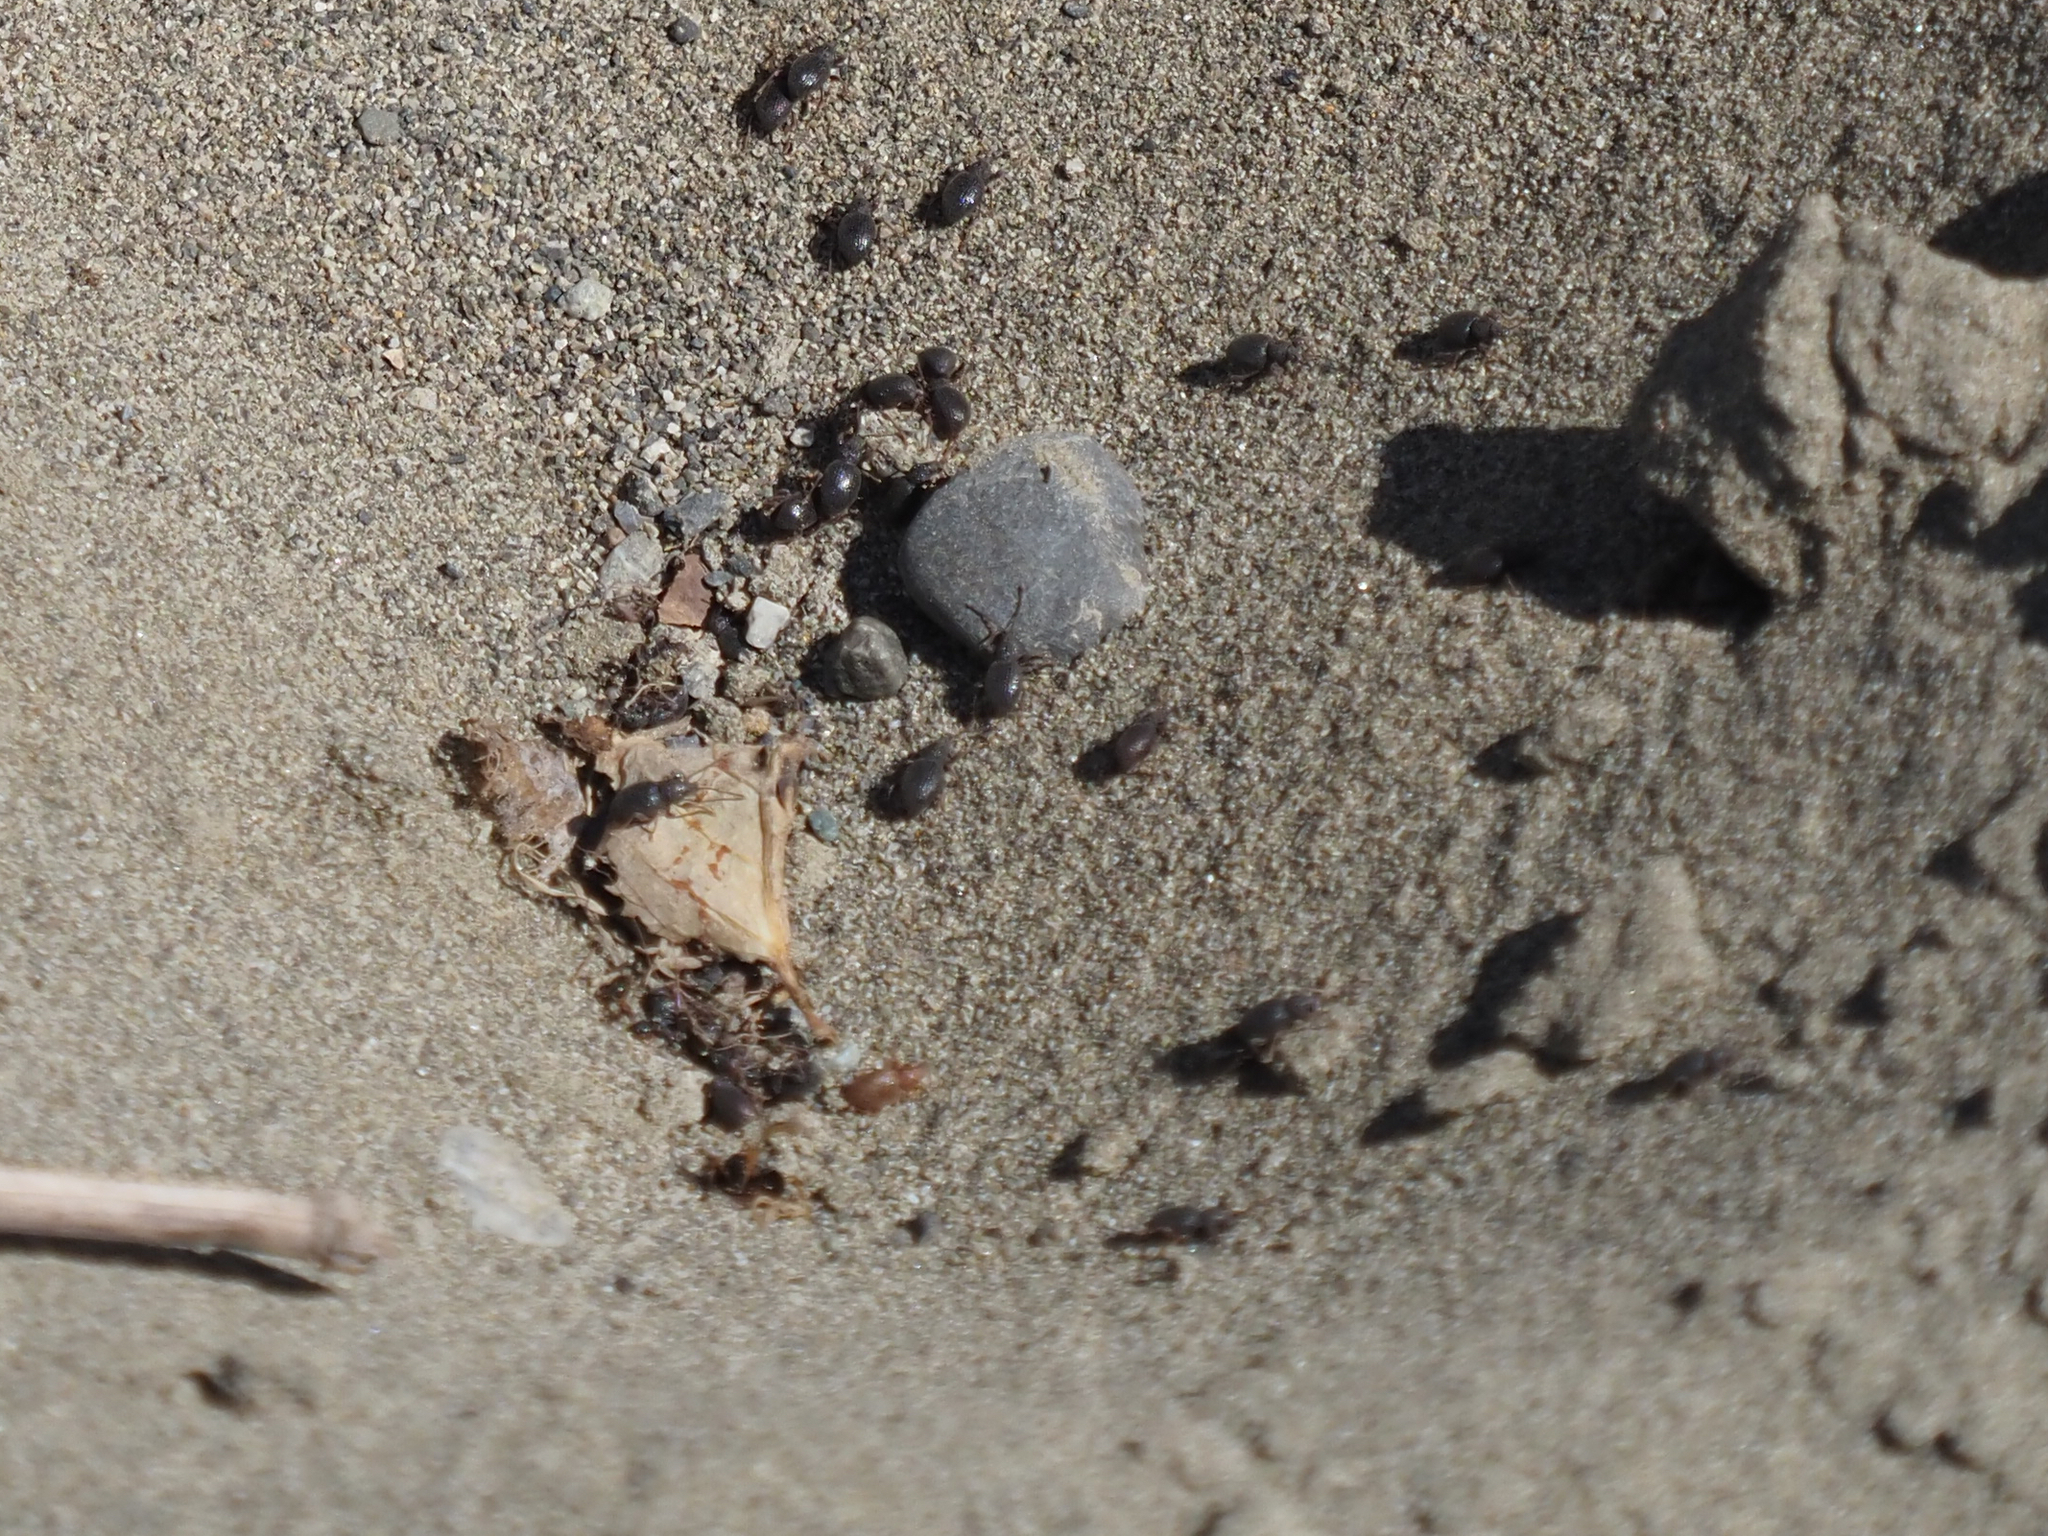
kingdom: Animalia
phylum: Arthropoda
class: Insecta
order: Coleoptera
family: Curculionidae
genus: Otiorhynchus
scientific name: Otiorhynchus ovatus
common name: Strawberry root weevil
